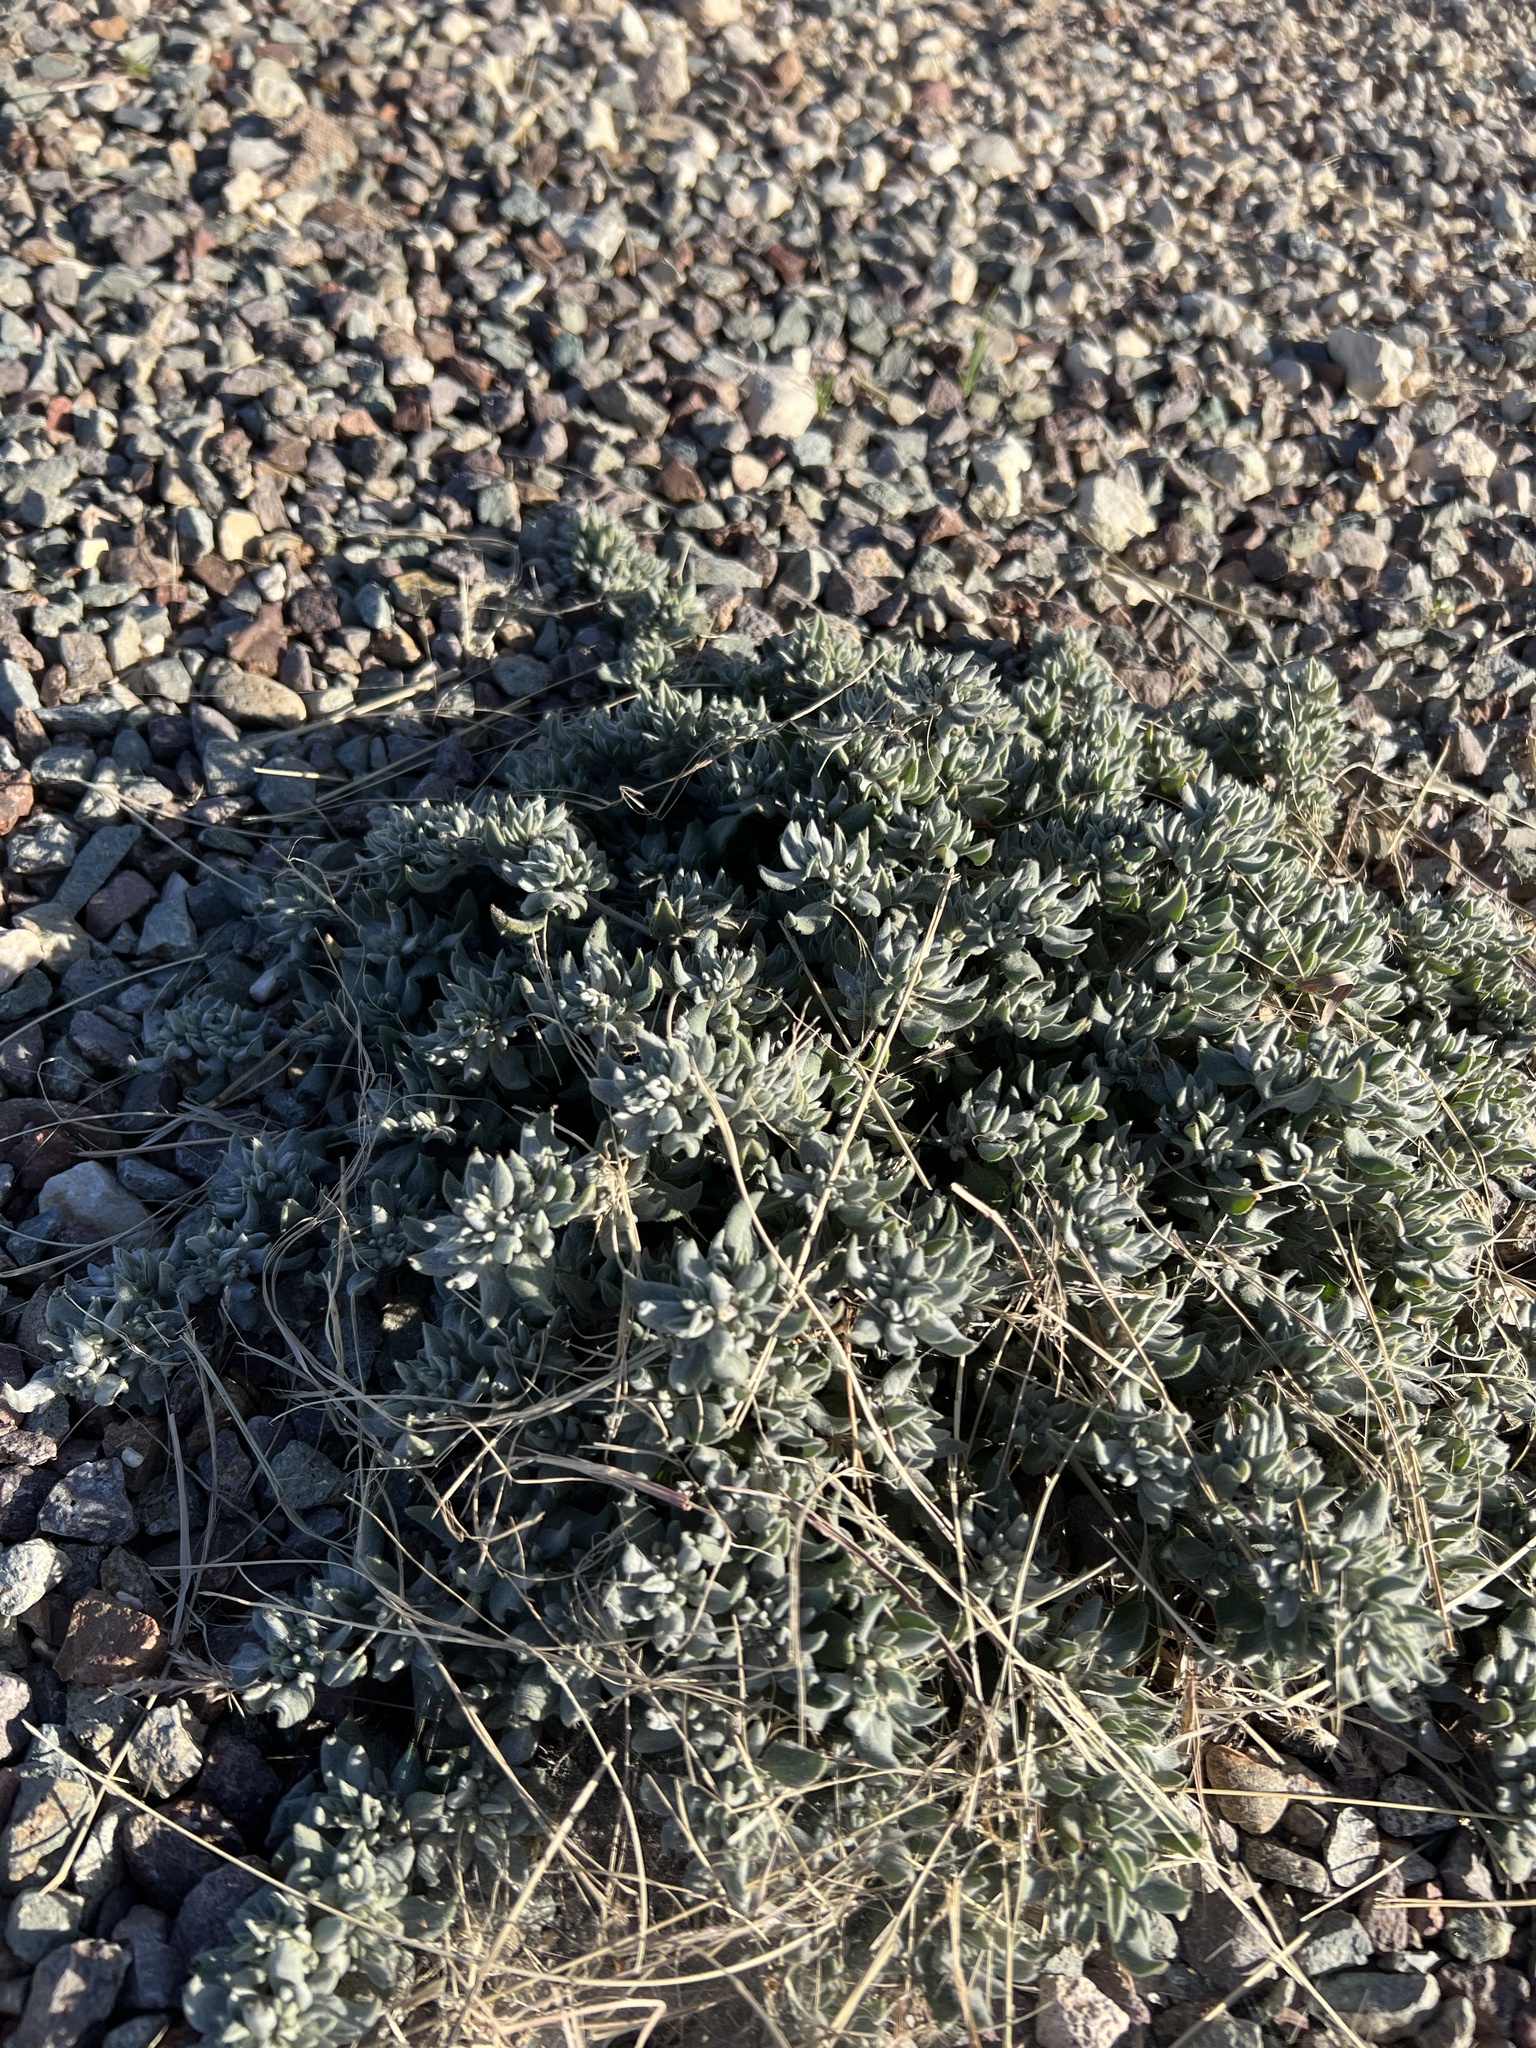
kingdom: Plantae
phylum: Tracheophyta
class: Magnoliopsida
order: Boraginales
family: Ehretiaceae
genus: Tiquilia
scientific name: Tiquilia canescens
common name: Hairy tiquilia
